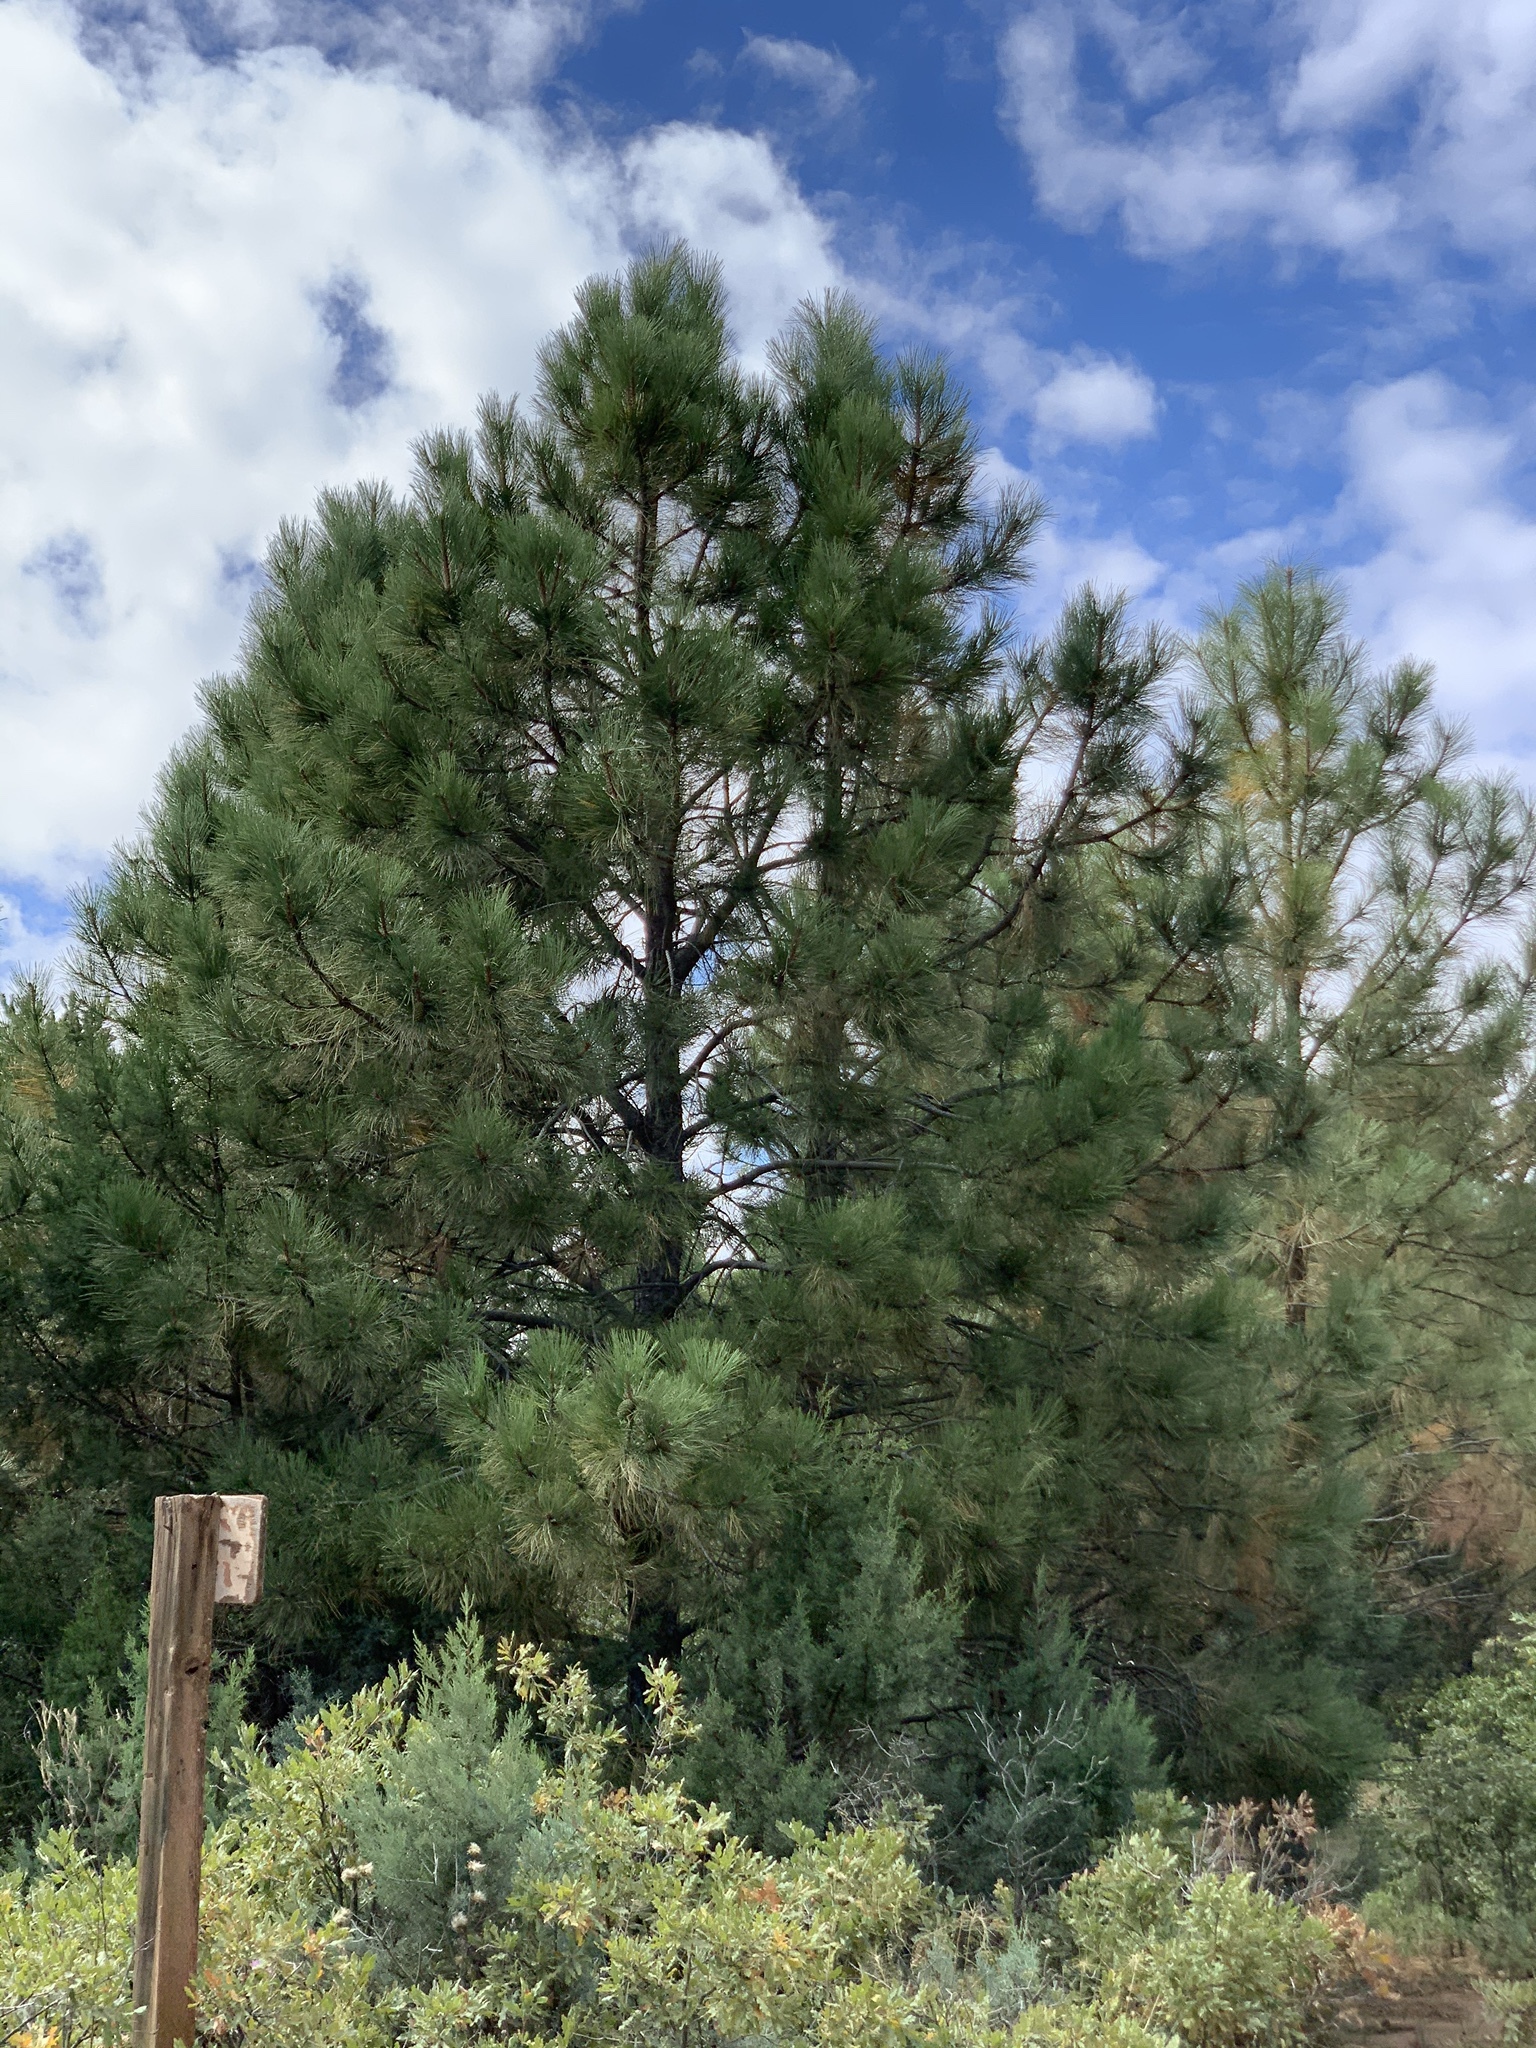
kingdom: Plantae
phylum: Tracheophyta
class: Pinopsida
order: Pinales
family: Pinaceae
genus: Pinus
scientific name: Pinus ponderosa
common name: Western yellow-pine
